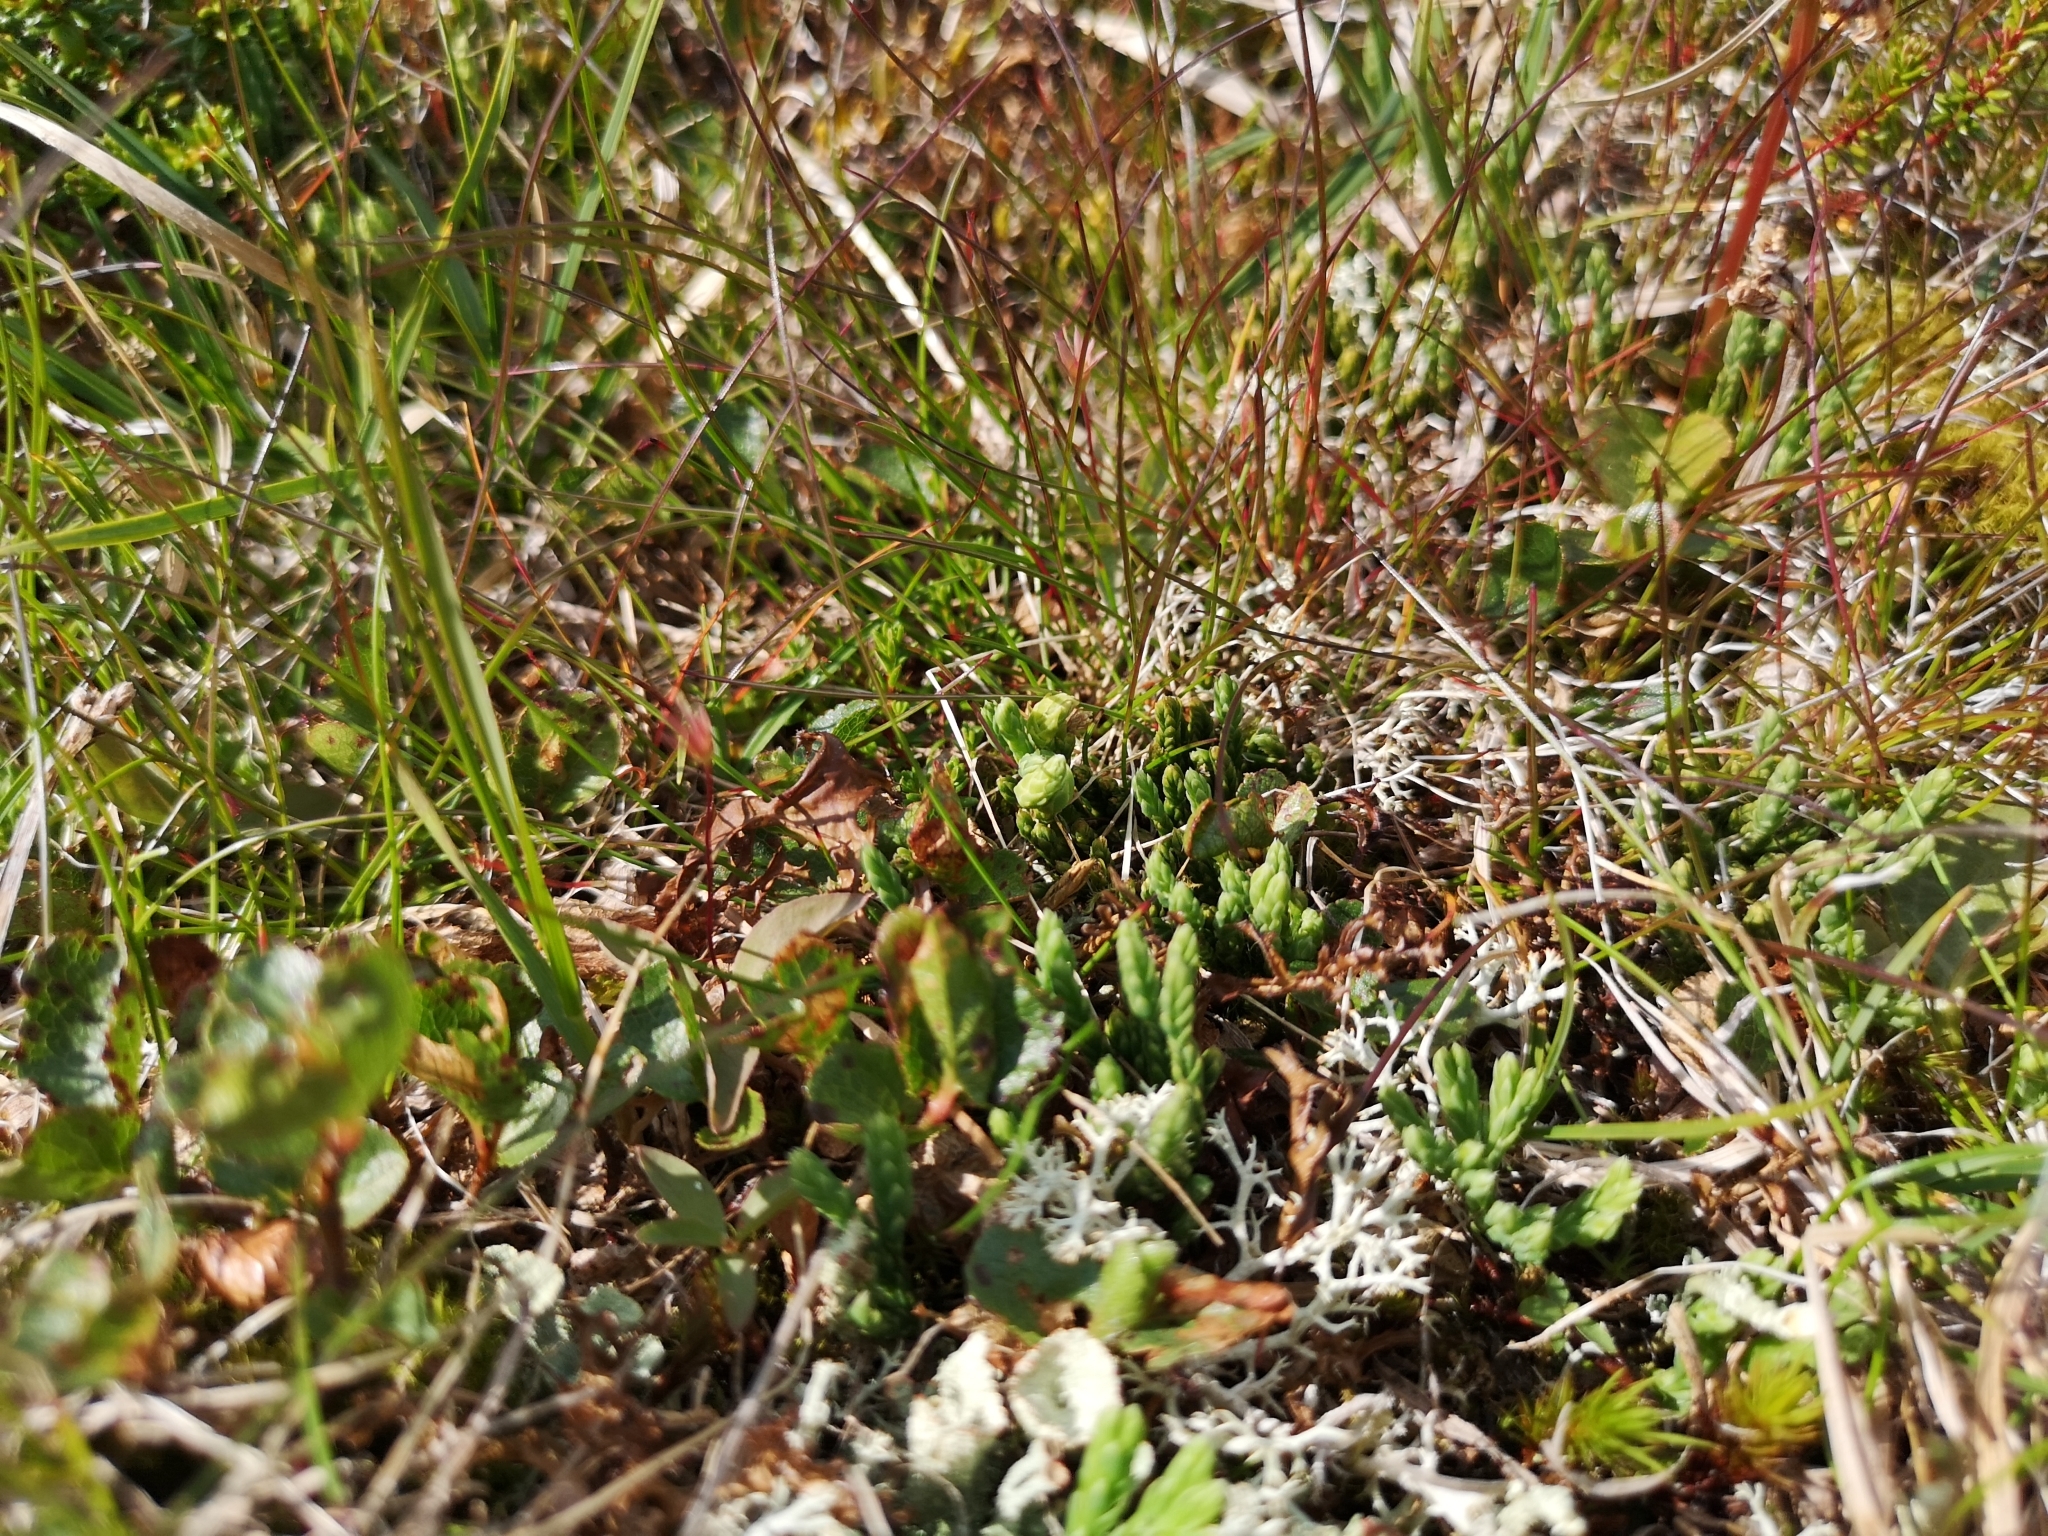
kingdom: Plantae
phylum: Tracheophyta
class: Lycopodiopsida
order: Lycopodiales
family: Lycopodiaceae
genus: Diphasiastrum
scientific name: Diphasiastrum alpinum
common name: Alpine clubmoss
